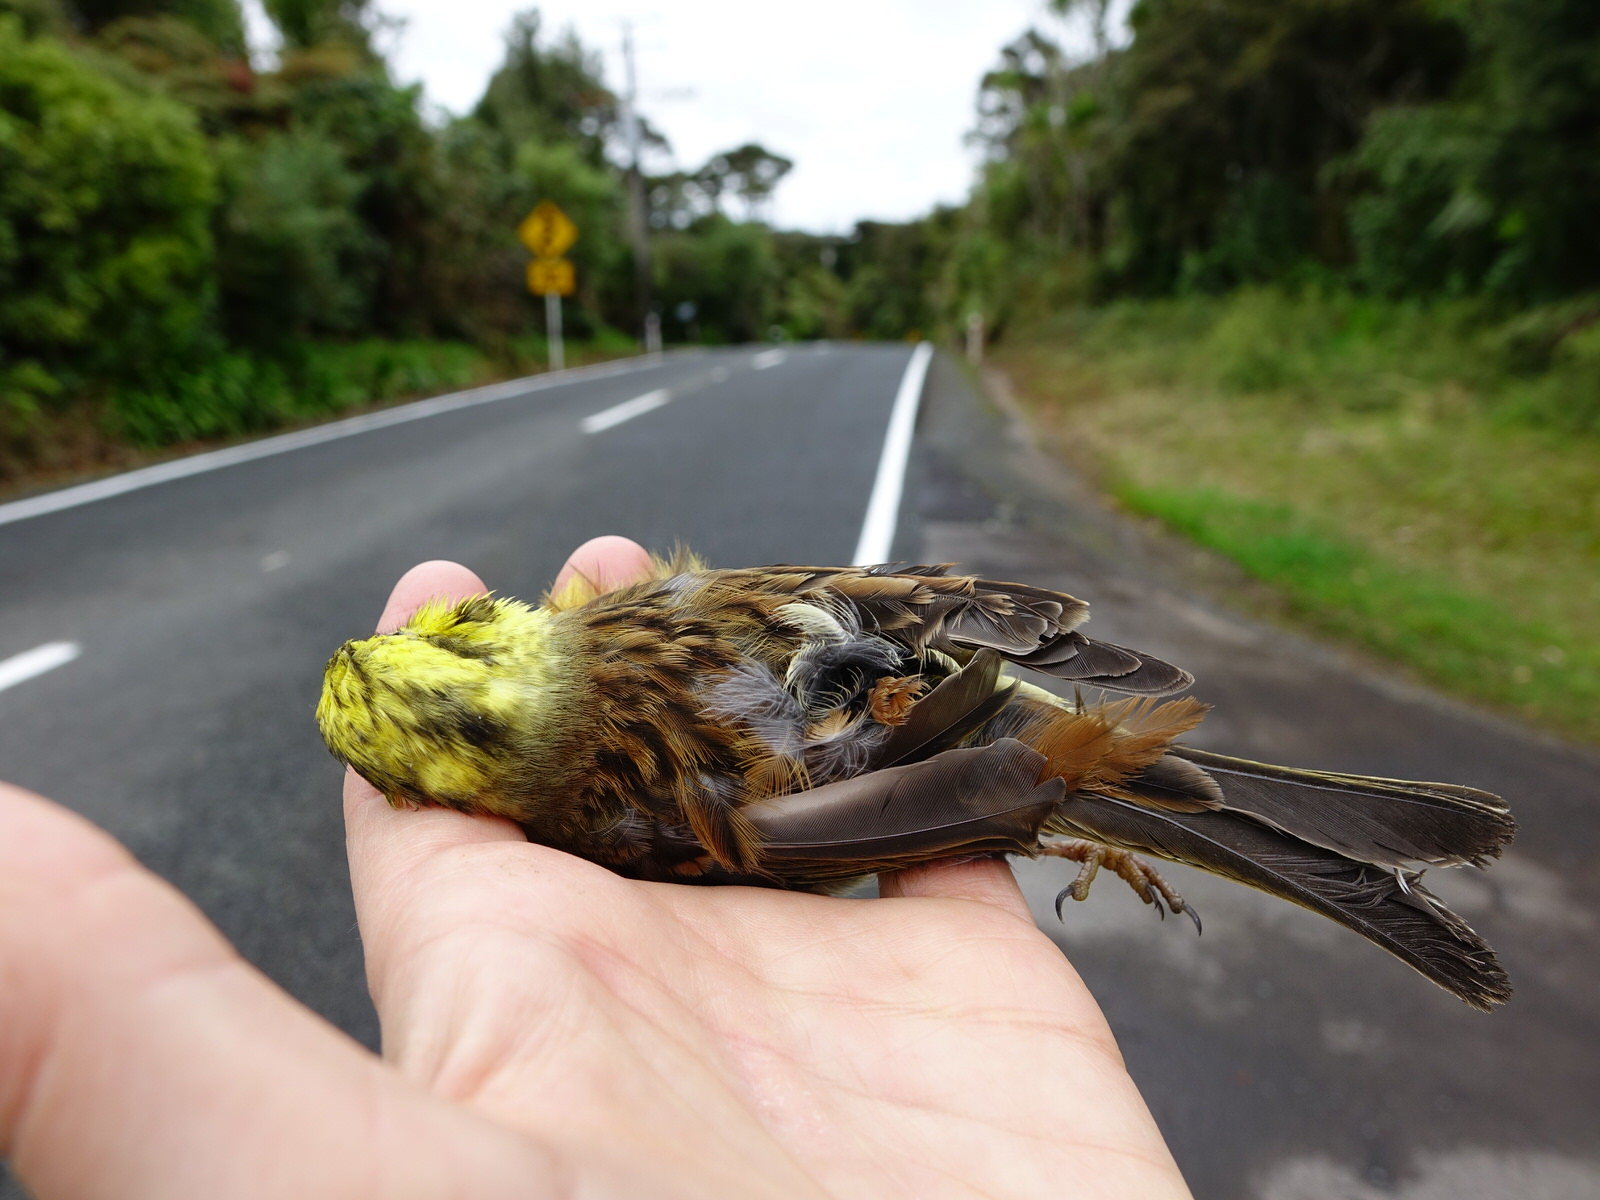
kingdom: Animalia
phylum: Chordata
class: Aves
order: Passeriformes
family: Emberizidae
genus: Emberiza
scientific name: Emberiza citrinella
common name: Yellowhammer
